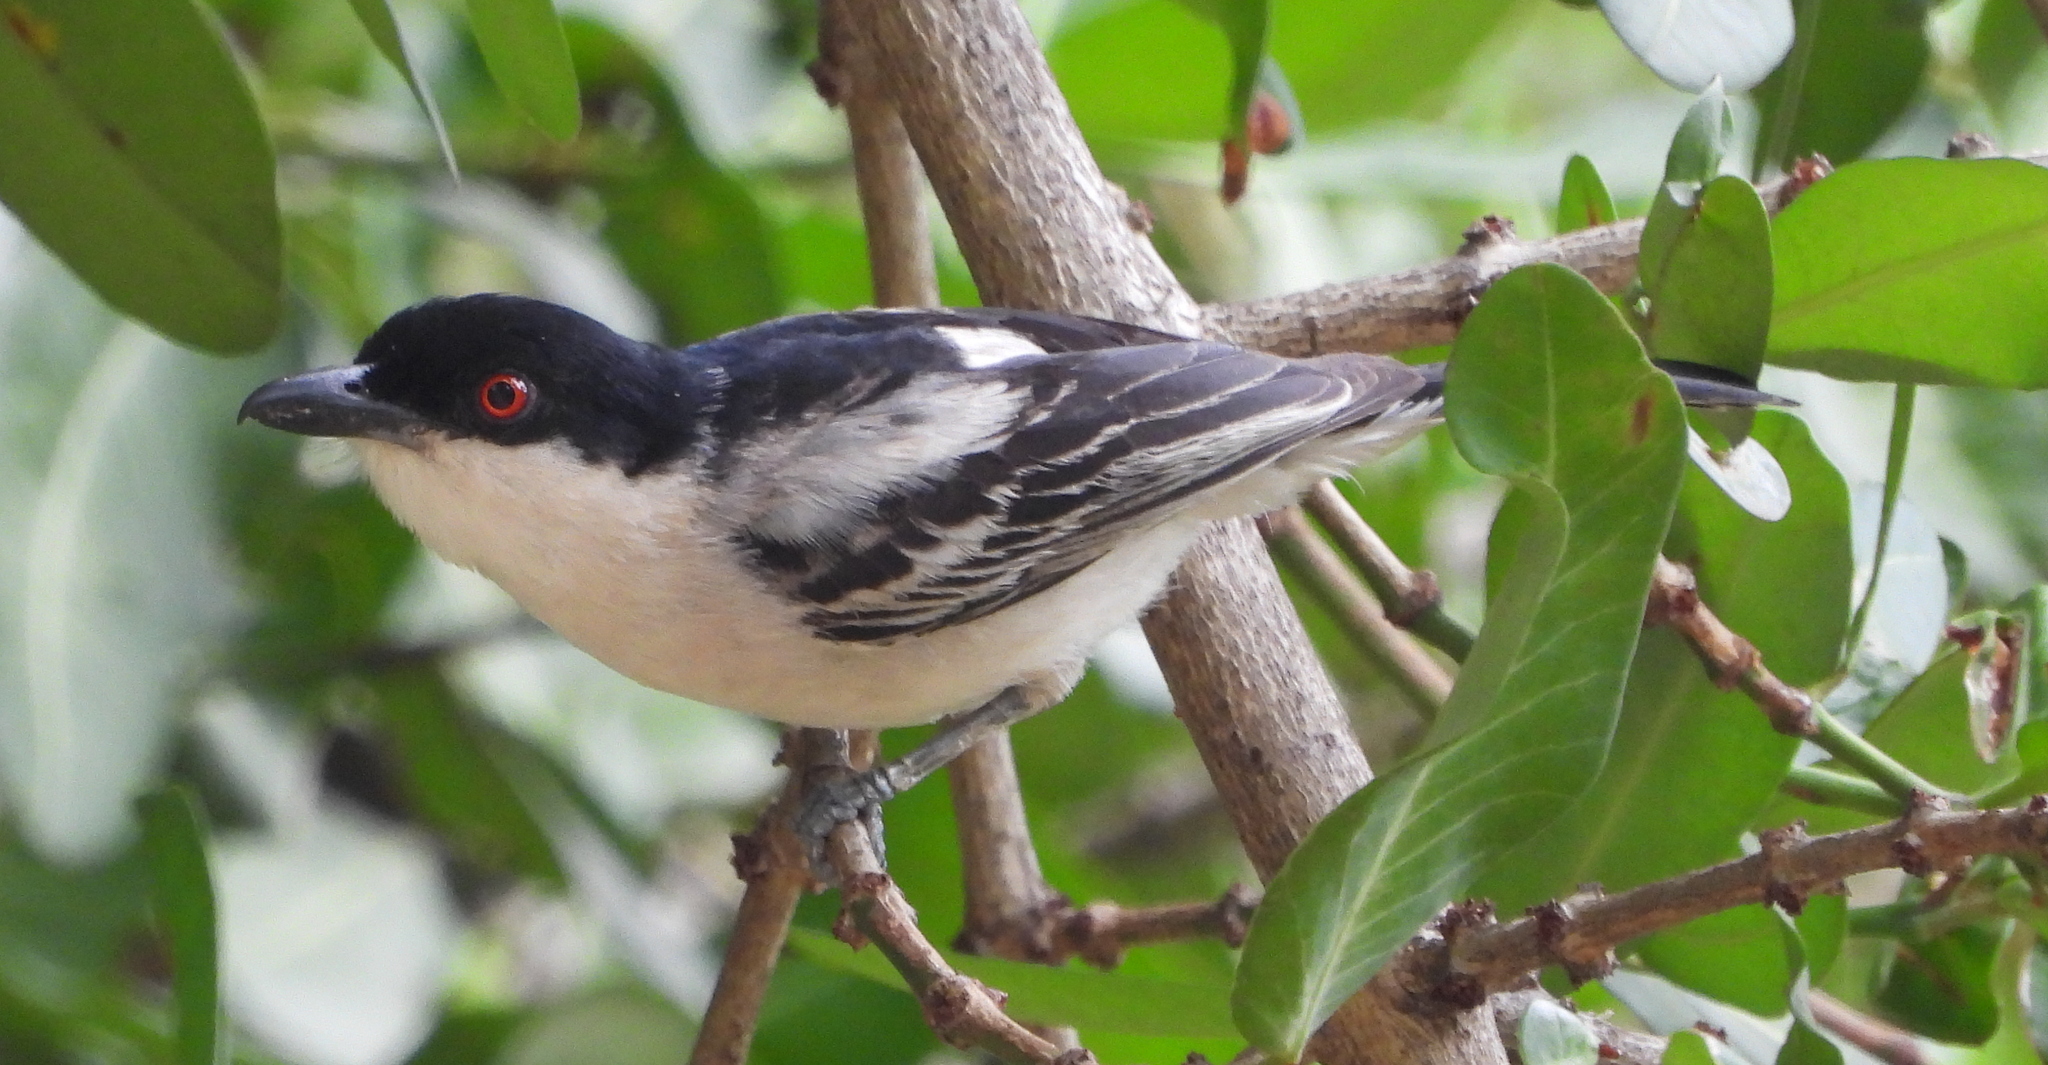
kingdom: Animalia
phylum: Chordata
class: Aves
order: Passeriformes
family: Malaconotidae
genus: Dryoscopus
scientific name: Dryoscopus cubla
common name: Black-backed puffback
